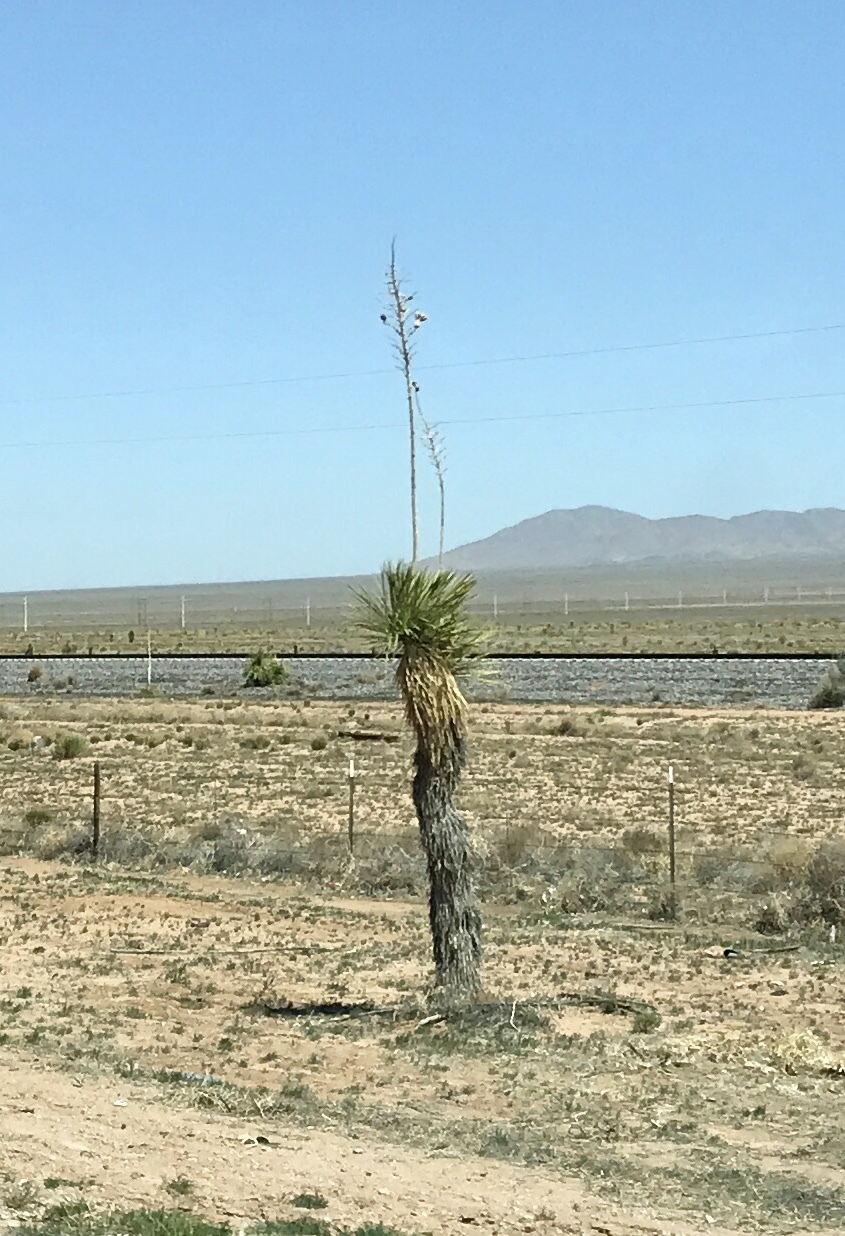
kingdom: Plantae
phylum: Tracheophyta
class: Liliopsida
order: Asparagales
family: Asparagaceae
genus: Yucca
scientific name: Yucca elata
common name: Palmella
